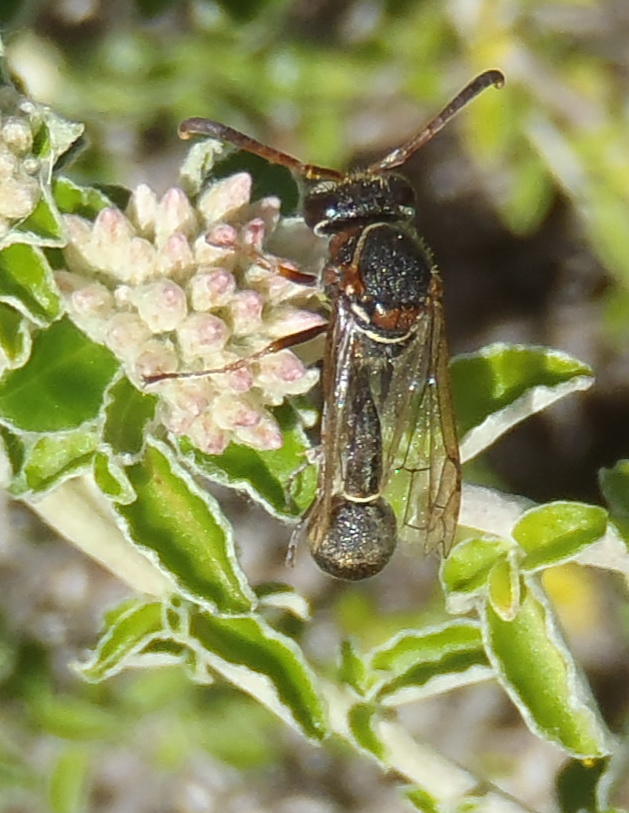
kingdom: Animalia
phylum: Arthropoda
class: Insecta
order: Hymenoptera
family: Vespidae
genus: Eumenes
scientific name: Eumenes
